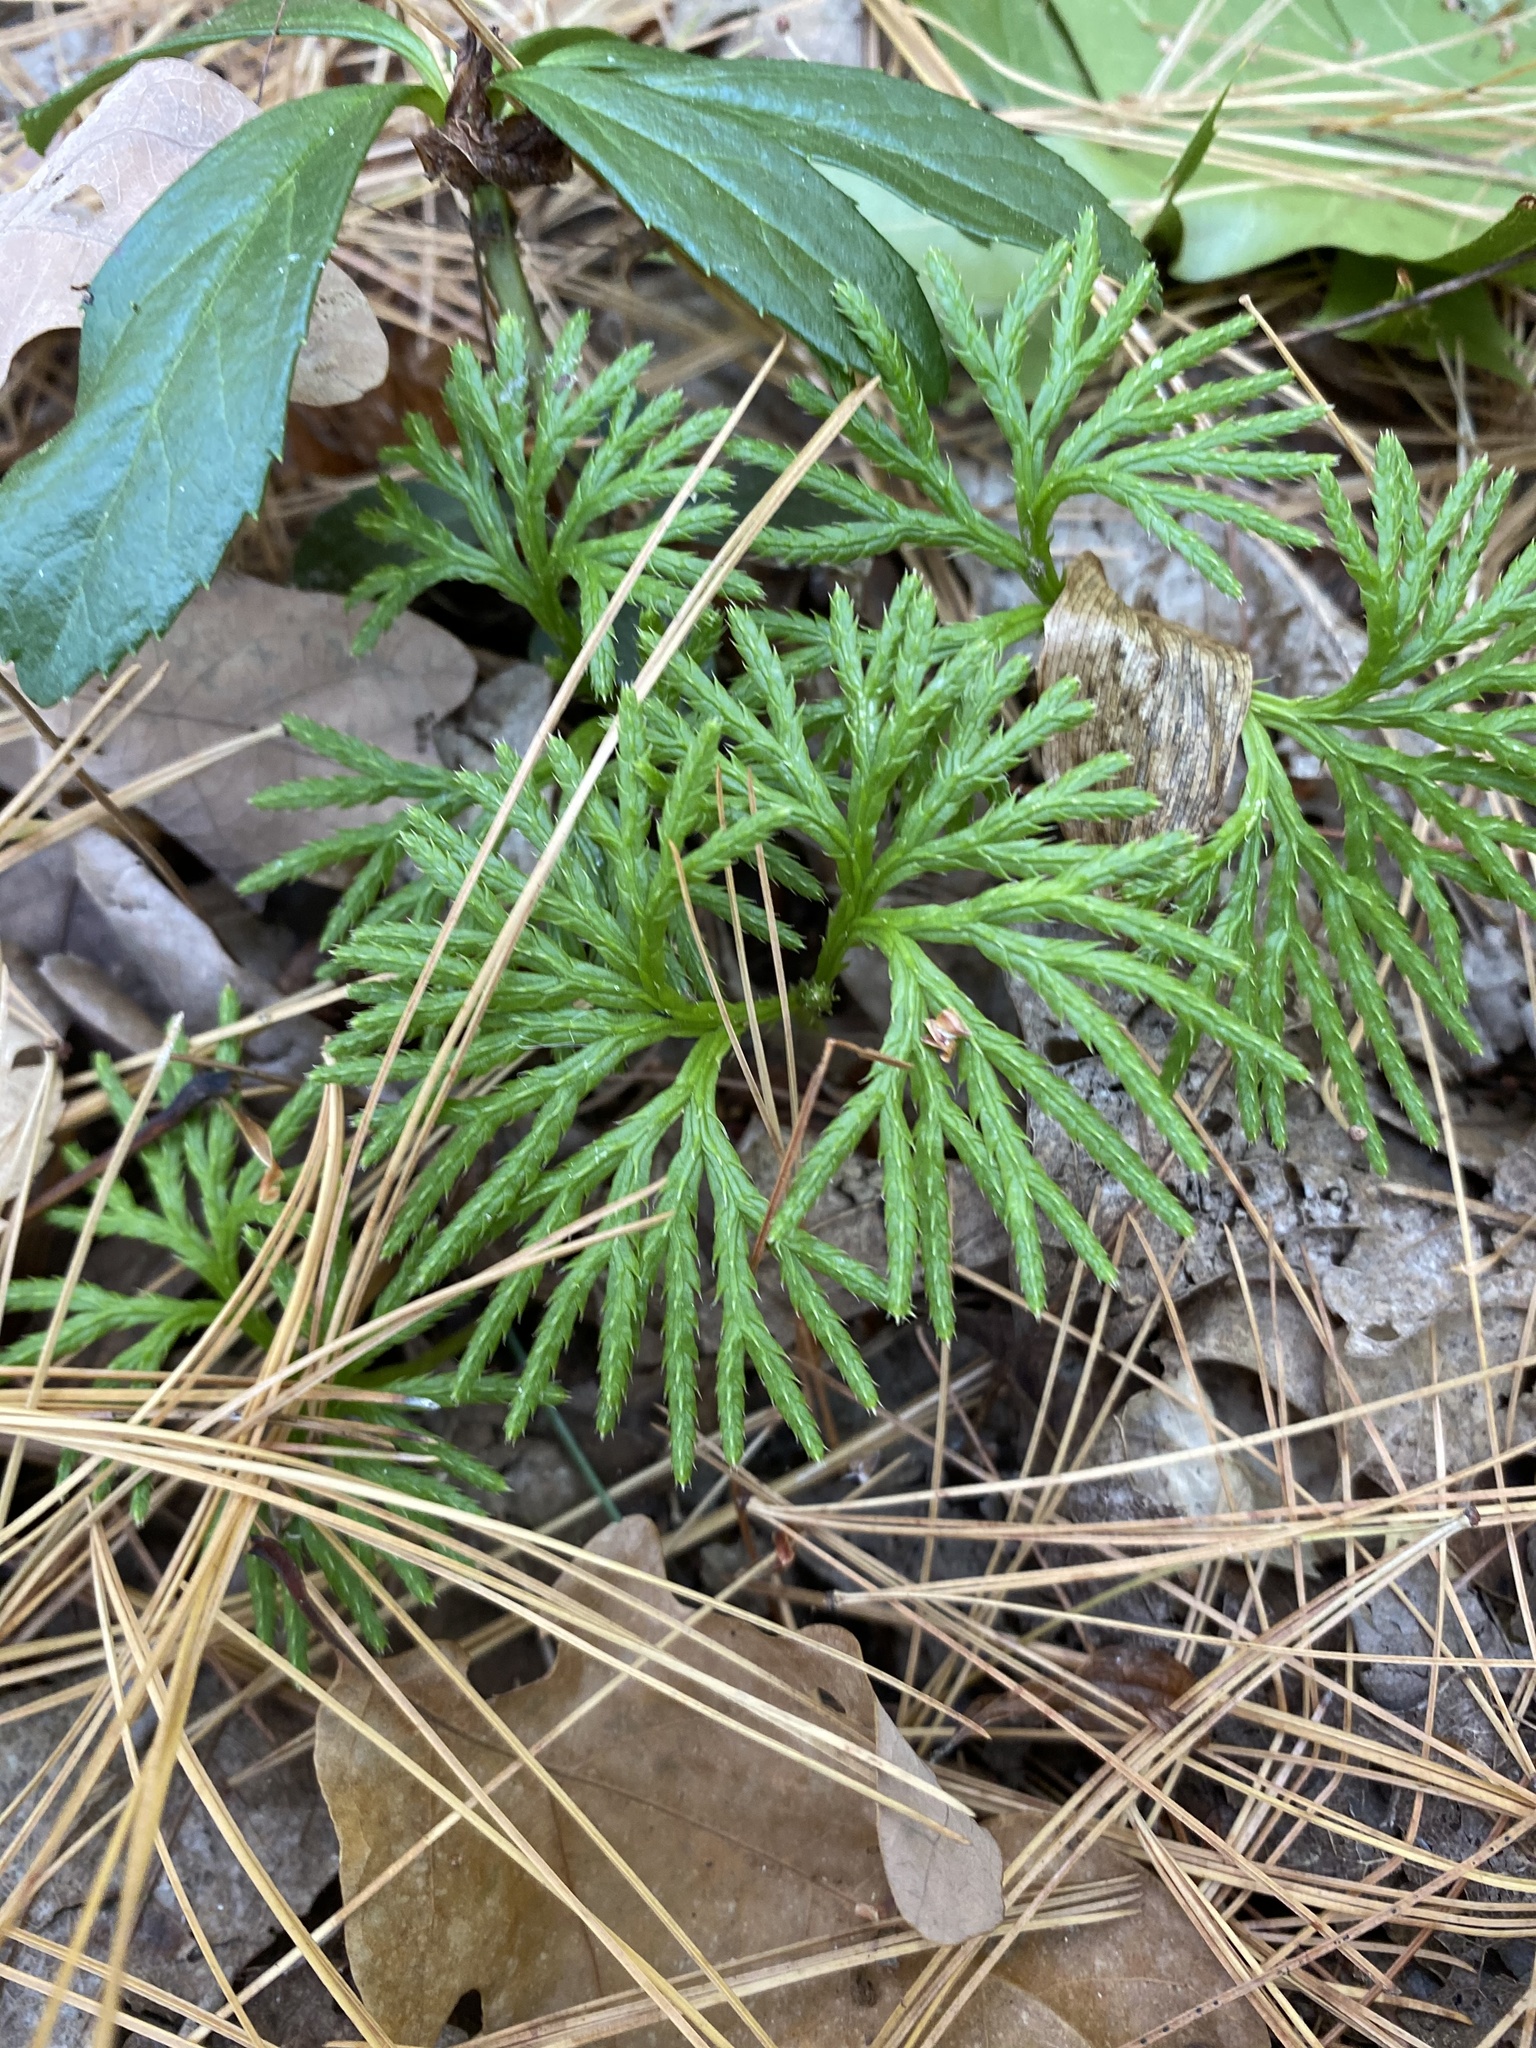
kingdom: Plantae
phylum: Tracheophyta
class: Lycopodiopsida
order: Lycopodiales
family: Lycopodiaceae
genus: Diphasiastrum
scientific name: Diphasiastrum digitatum
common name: Southern running-pine
